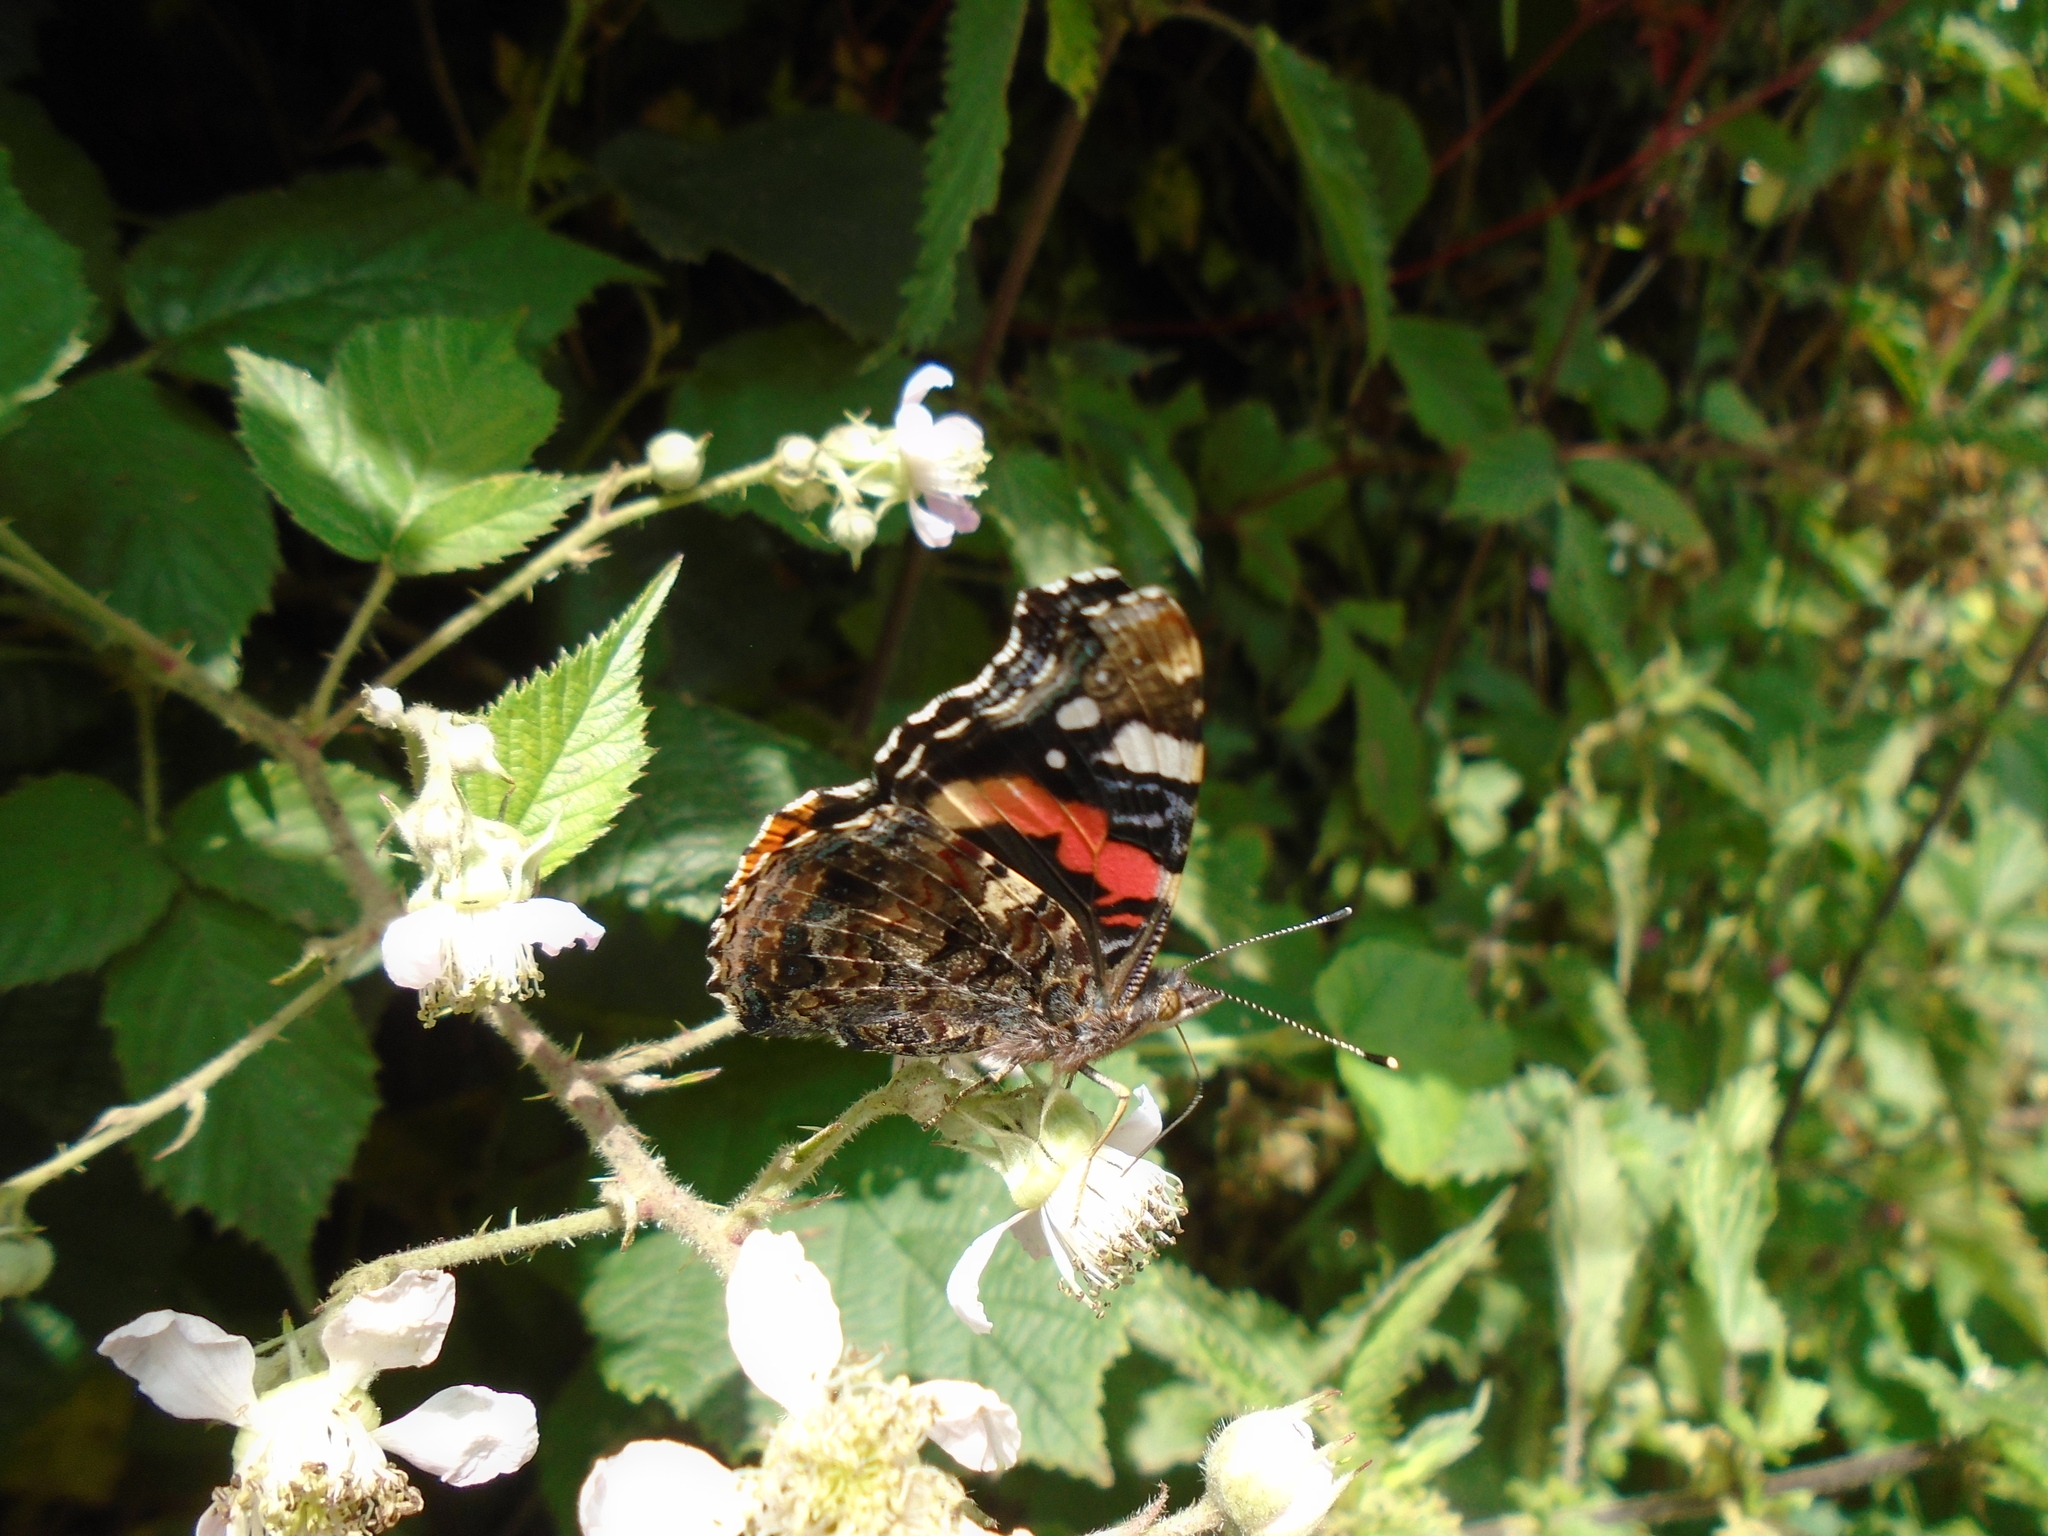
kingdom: Animalia
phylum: Arthropoda
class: Insecta
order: Lepidoptera
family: Nymphalidae
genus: Vanessa
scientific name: Vanessa atalanta
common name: Red admiral
